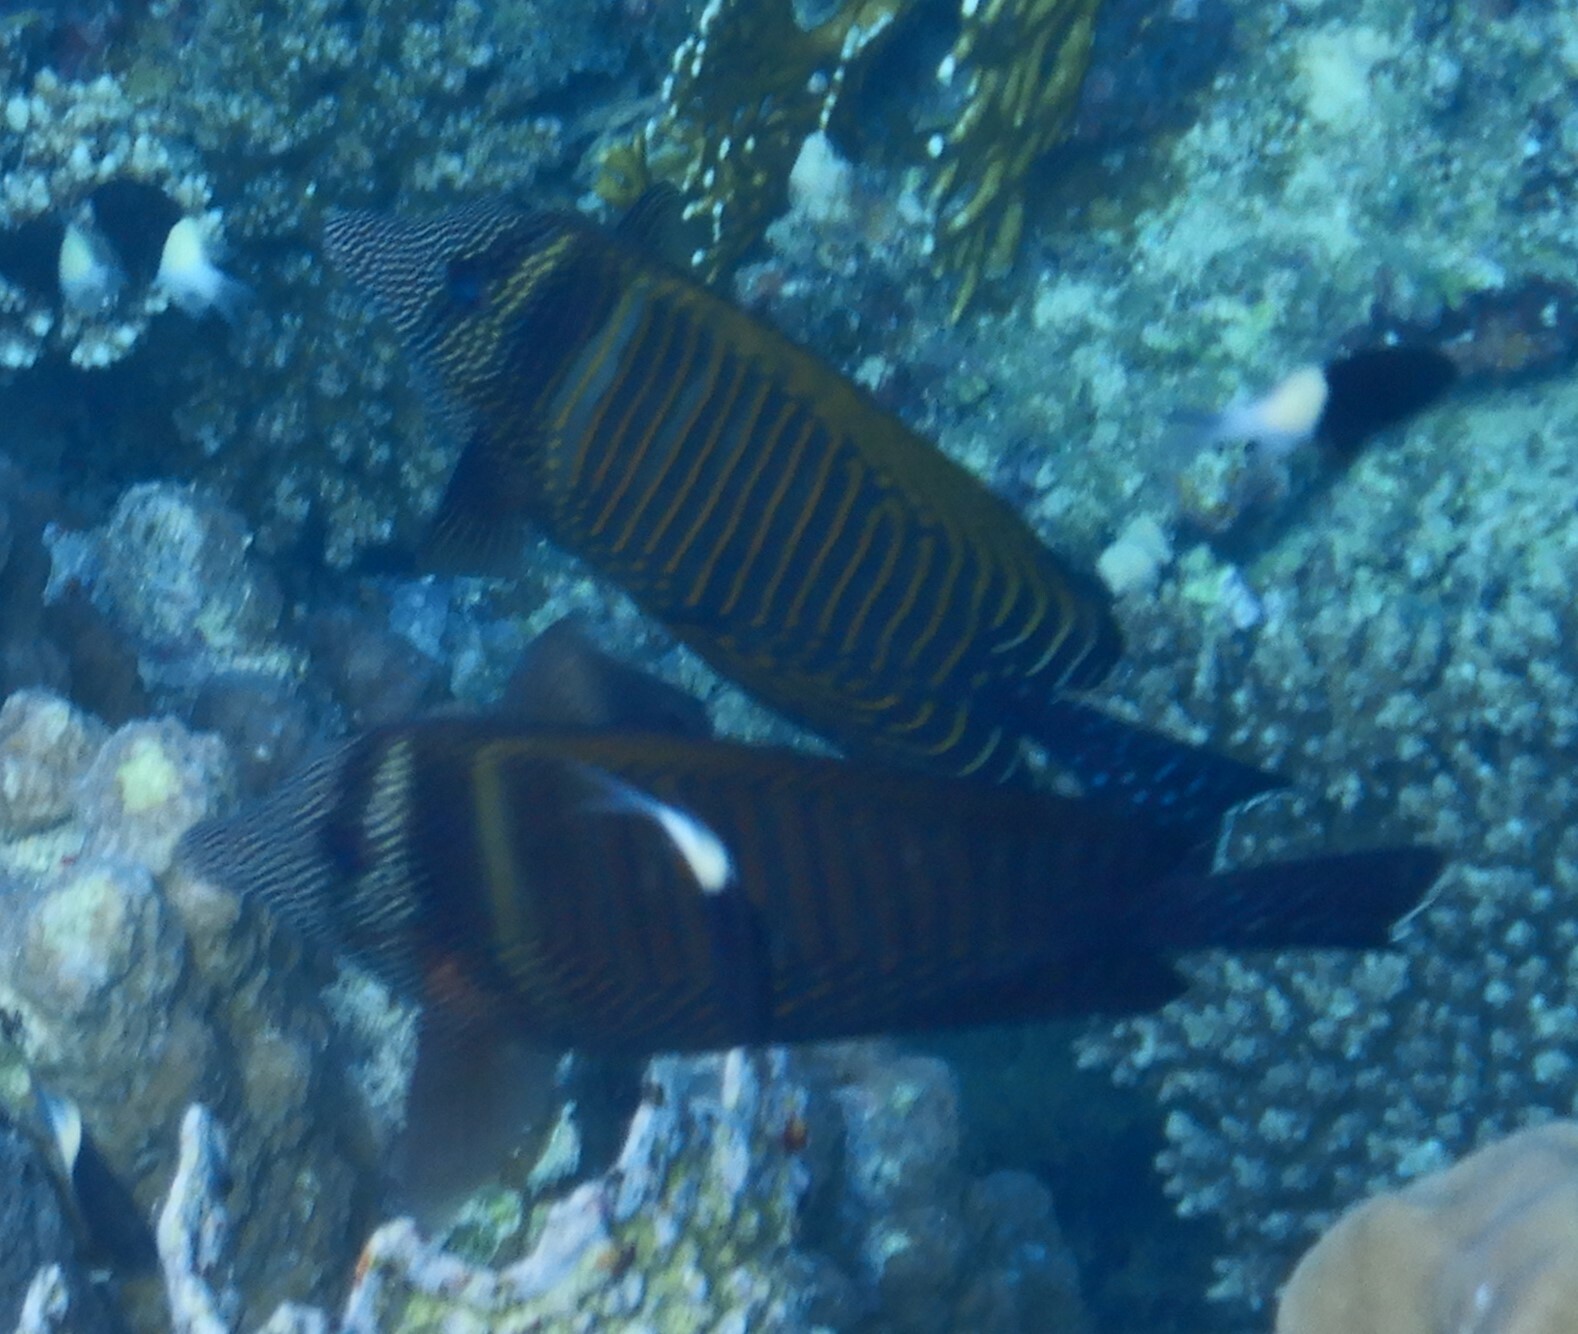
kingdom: Animalia
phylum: Chordata
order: Perciformes
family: Acanthuridae
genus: Zebrasoma
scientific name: Zebrasoma desjardinii
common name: Desjardin's sailfin tang
